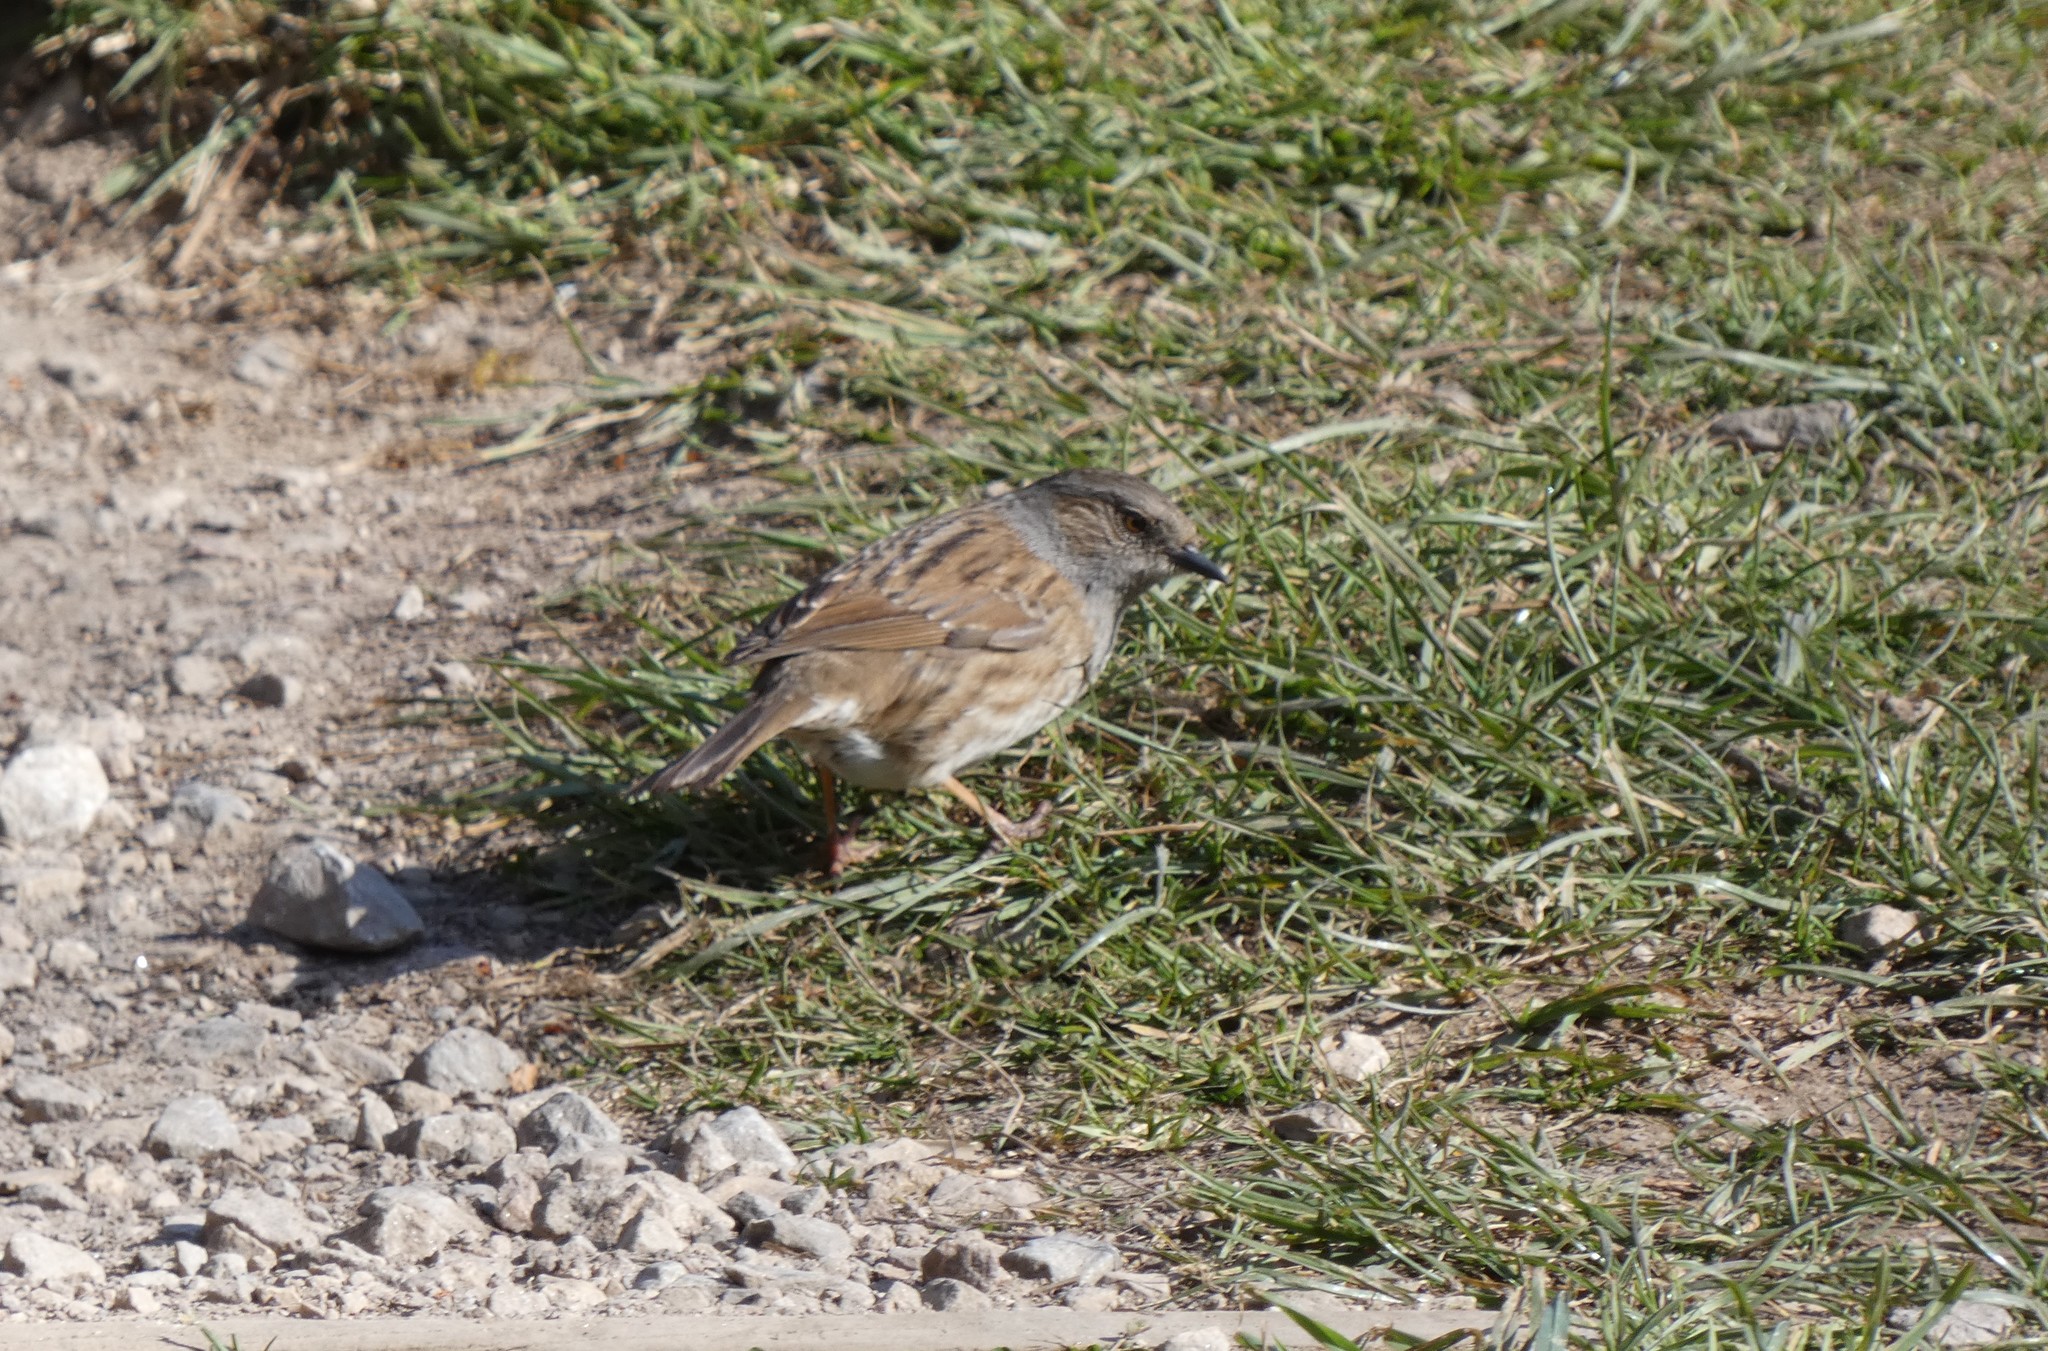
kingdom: Animalia
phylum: Chordata
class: Aves
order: Passeriformes
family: Prunellidae
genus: Prunella
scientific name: Prunella modularis
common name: Dunnock
